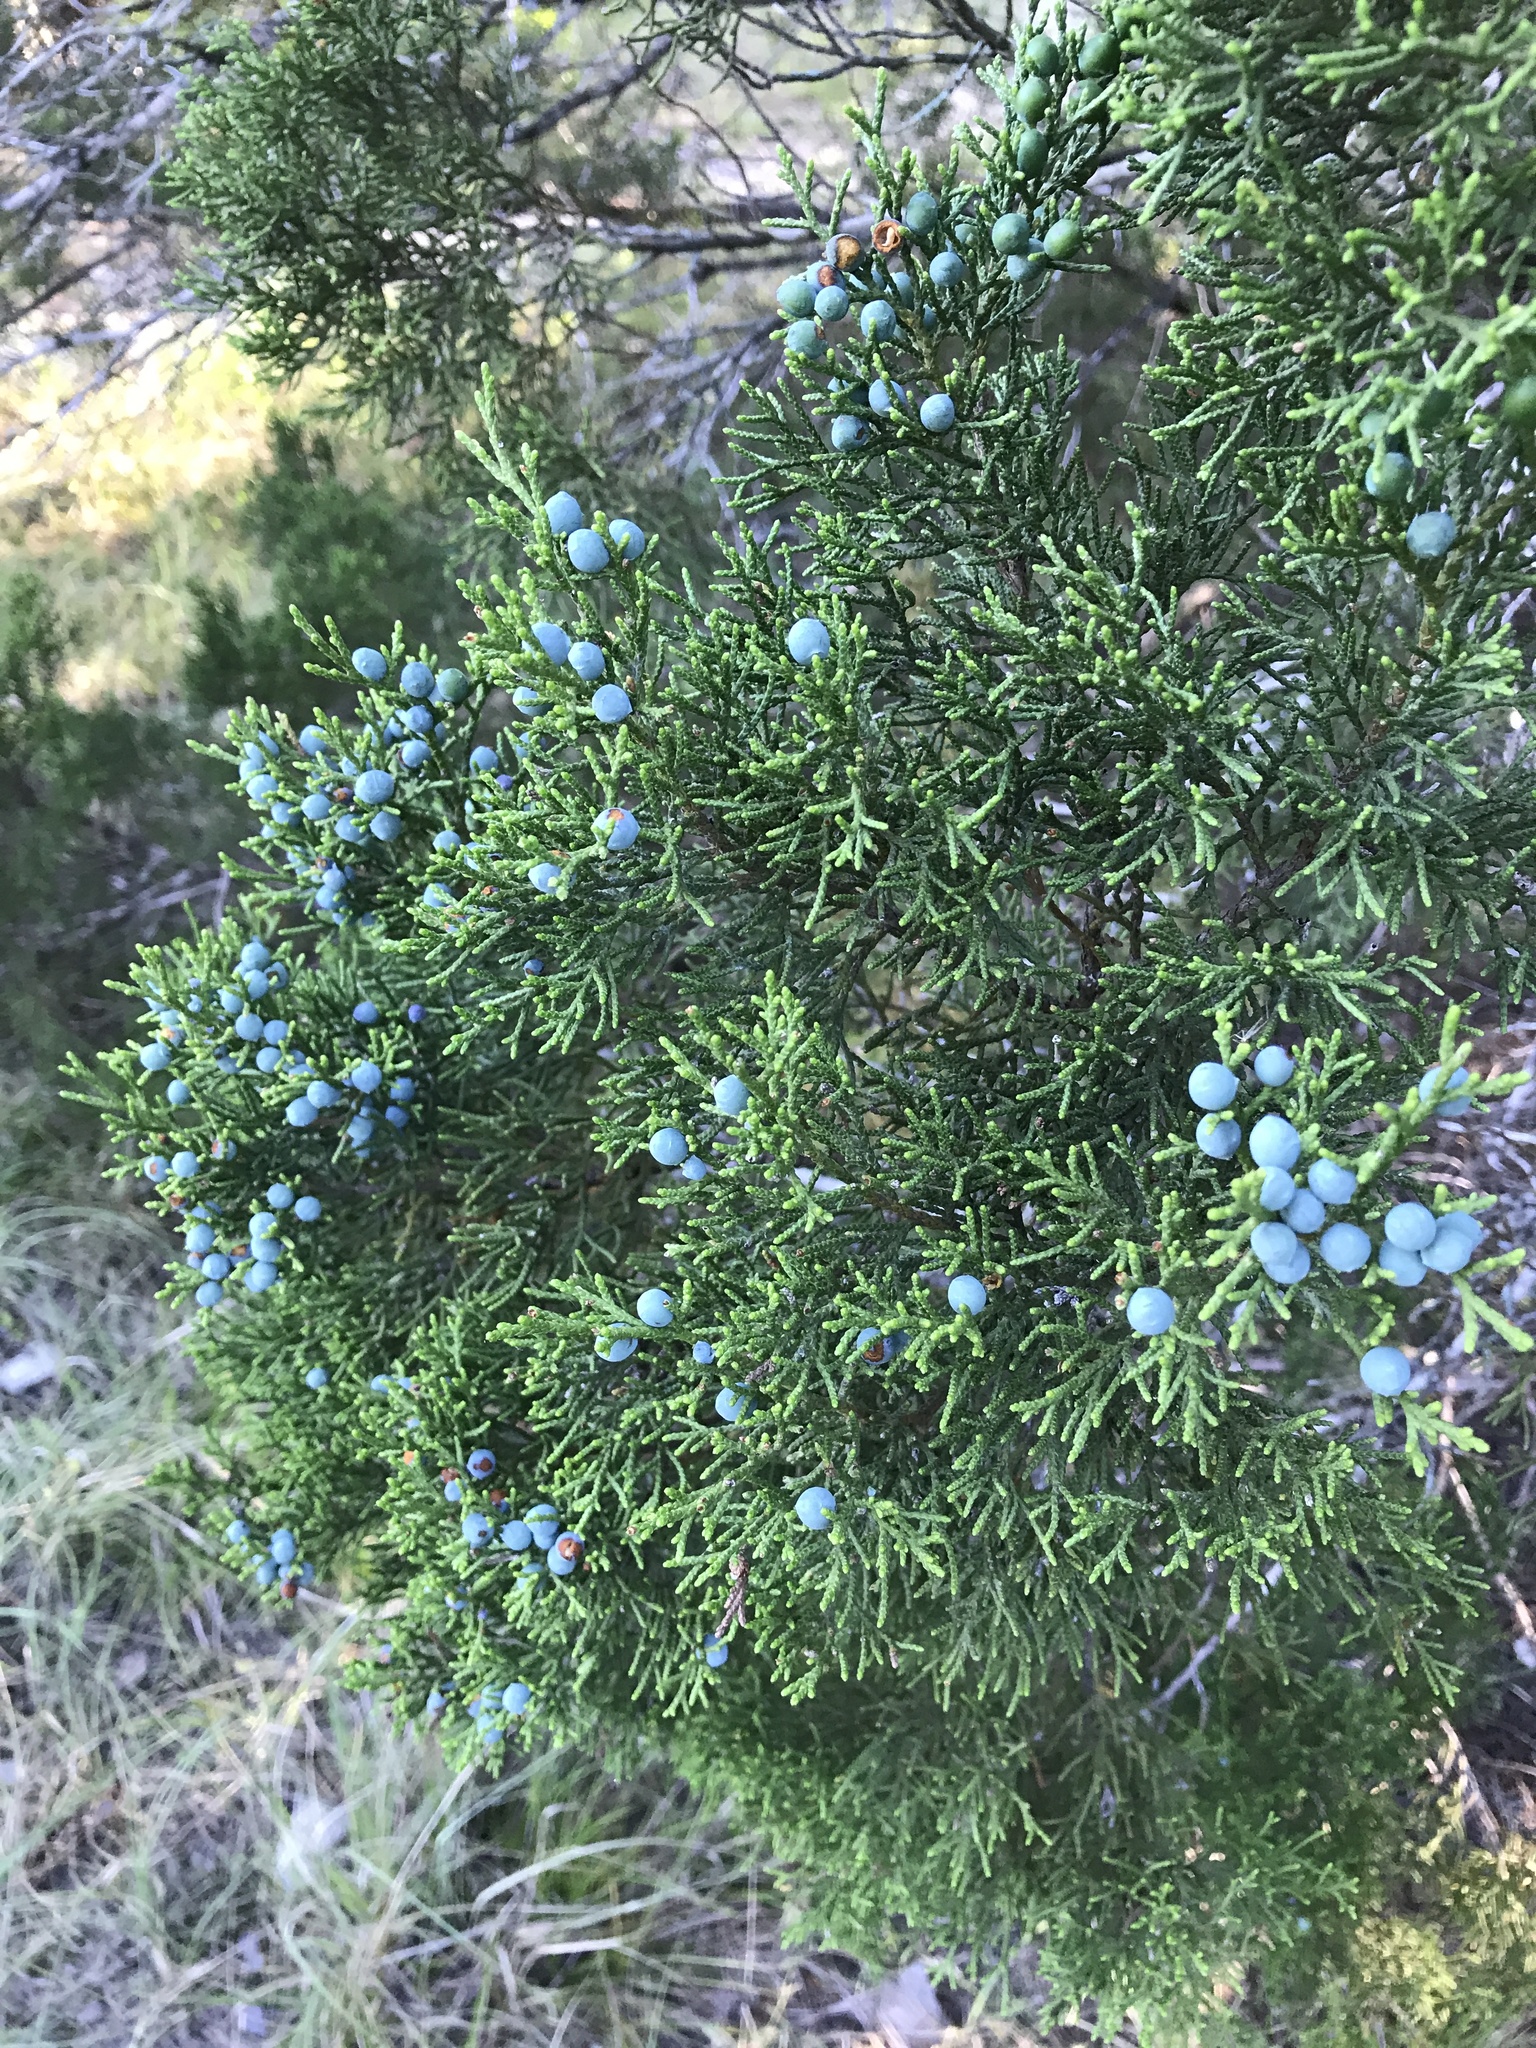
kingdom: Plantae
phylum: Tracheophyta
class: Pinopsida
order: Pinales
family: Cupressaceae
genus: Juniperus
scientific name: Juniperus ashei
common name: Mexican juniper
